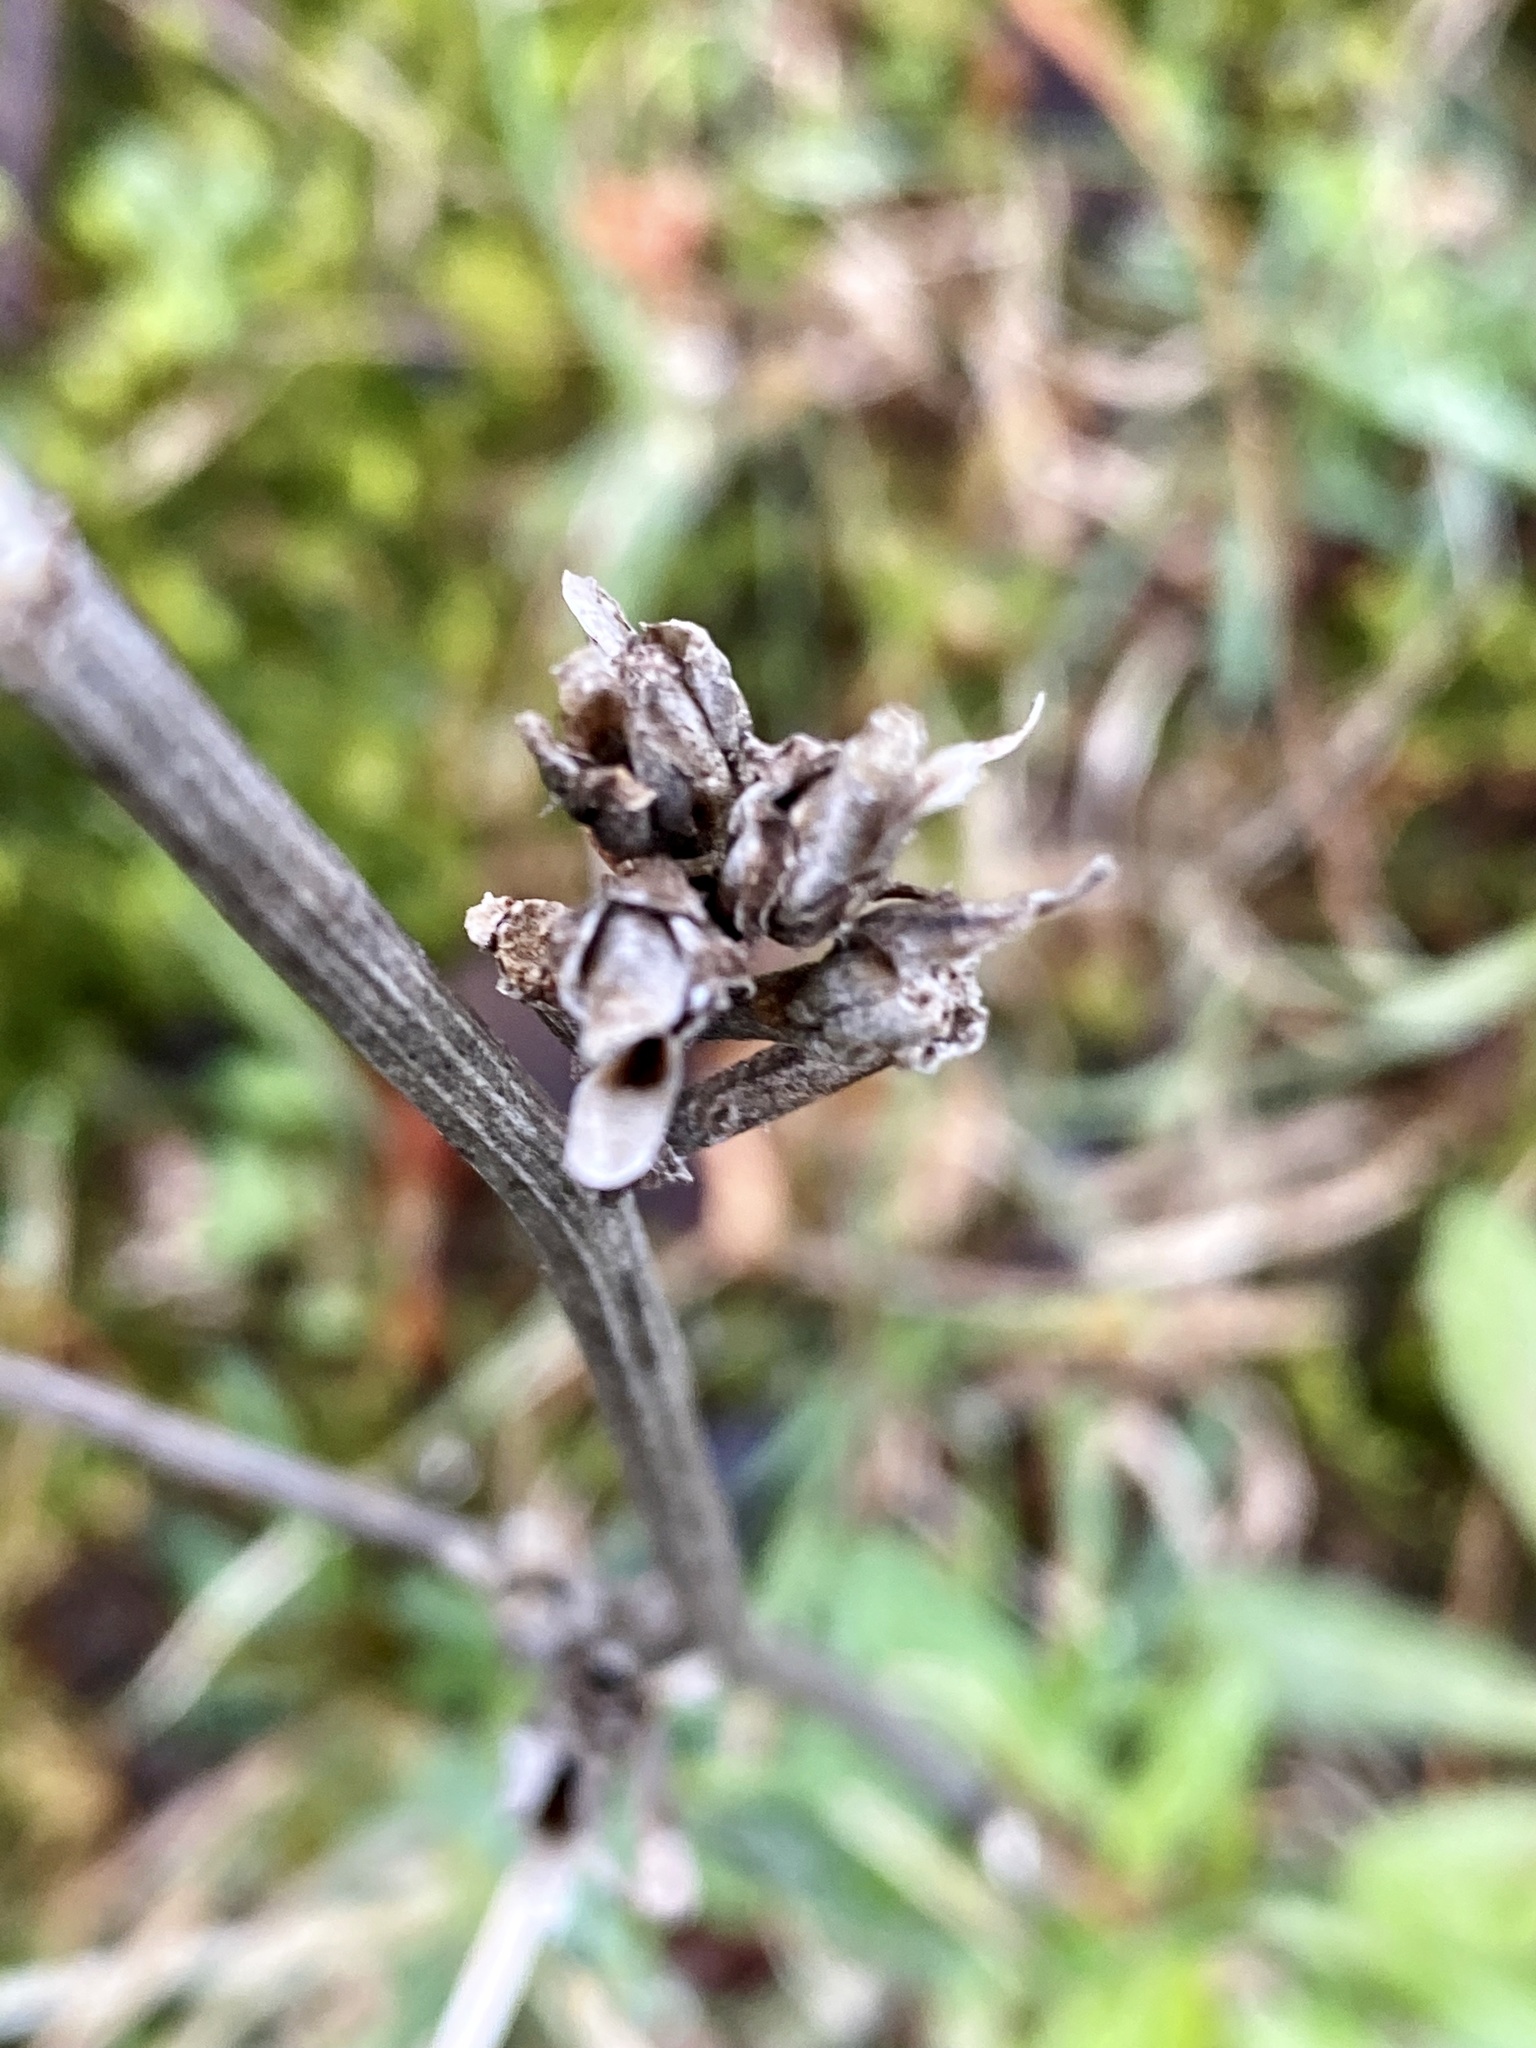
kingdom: Plantae
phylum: Tracheophyta
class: Magnoliopsida
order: Asterales
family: Asteraceae
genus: Cichorium
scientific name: Cichorium intybus
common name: Chicory
